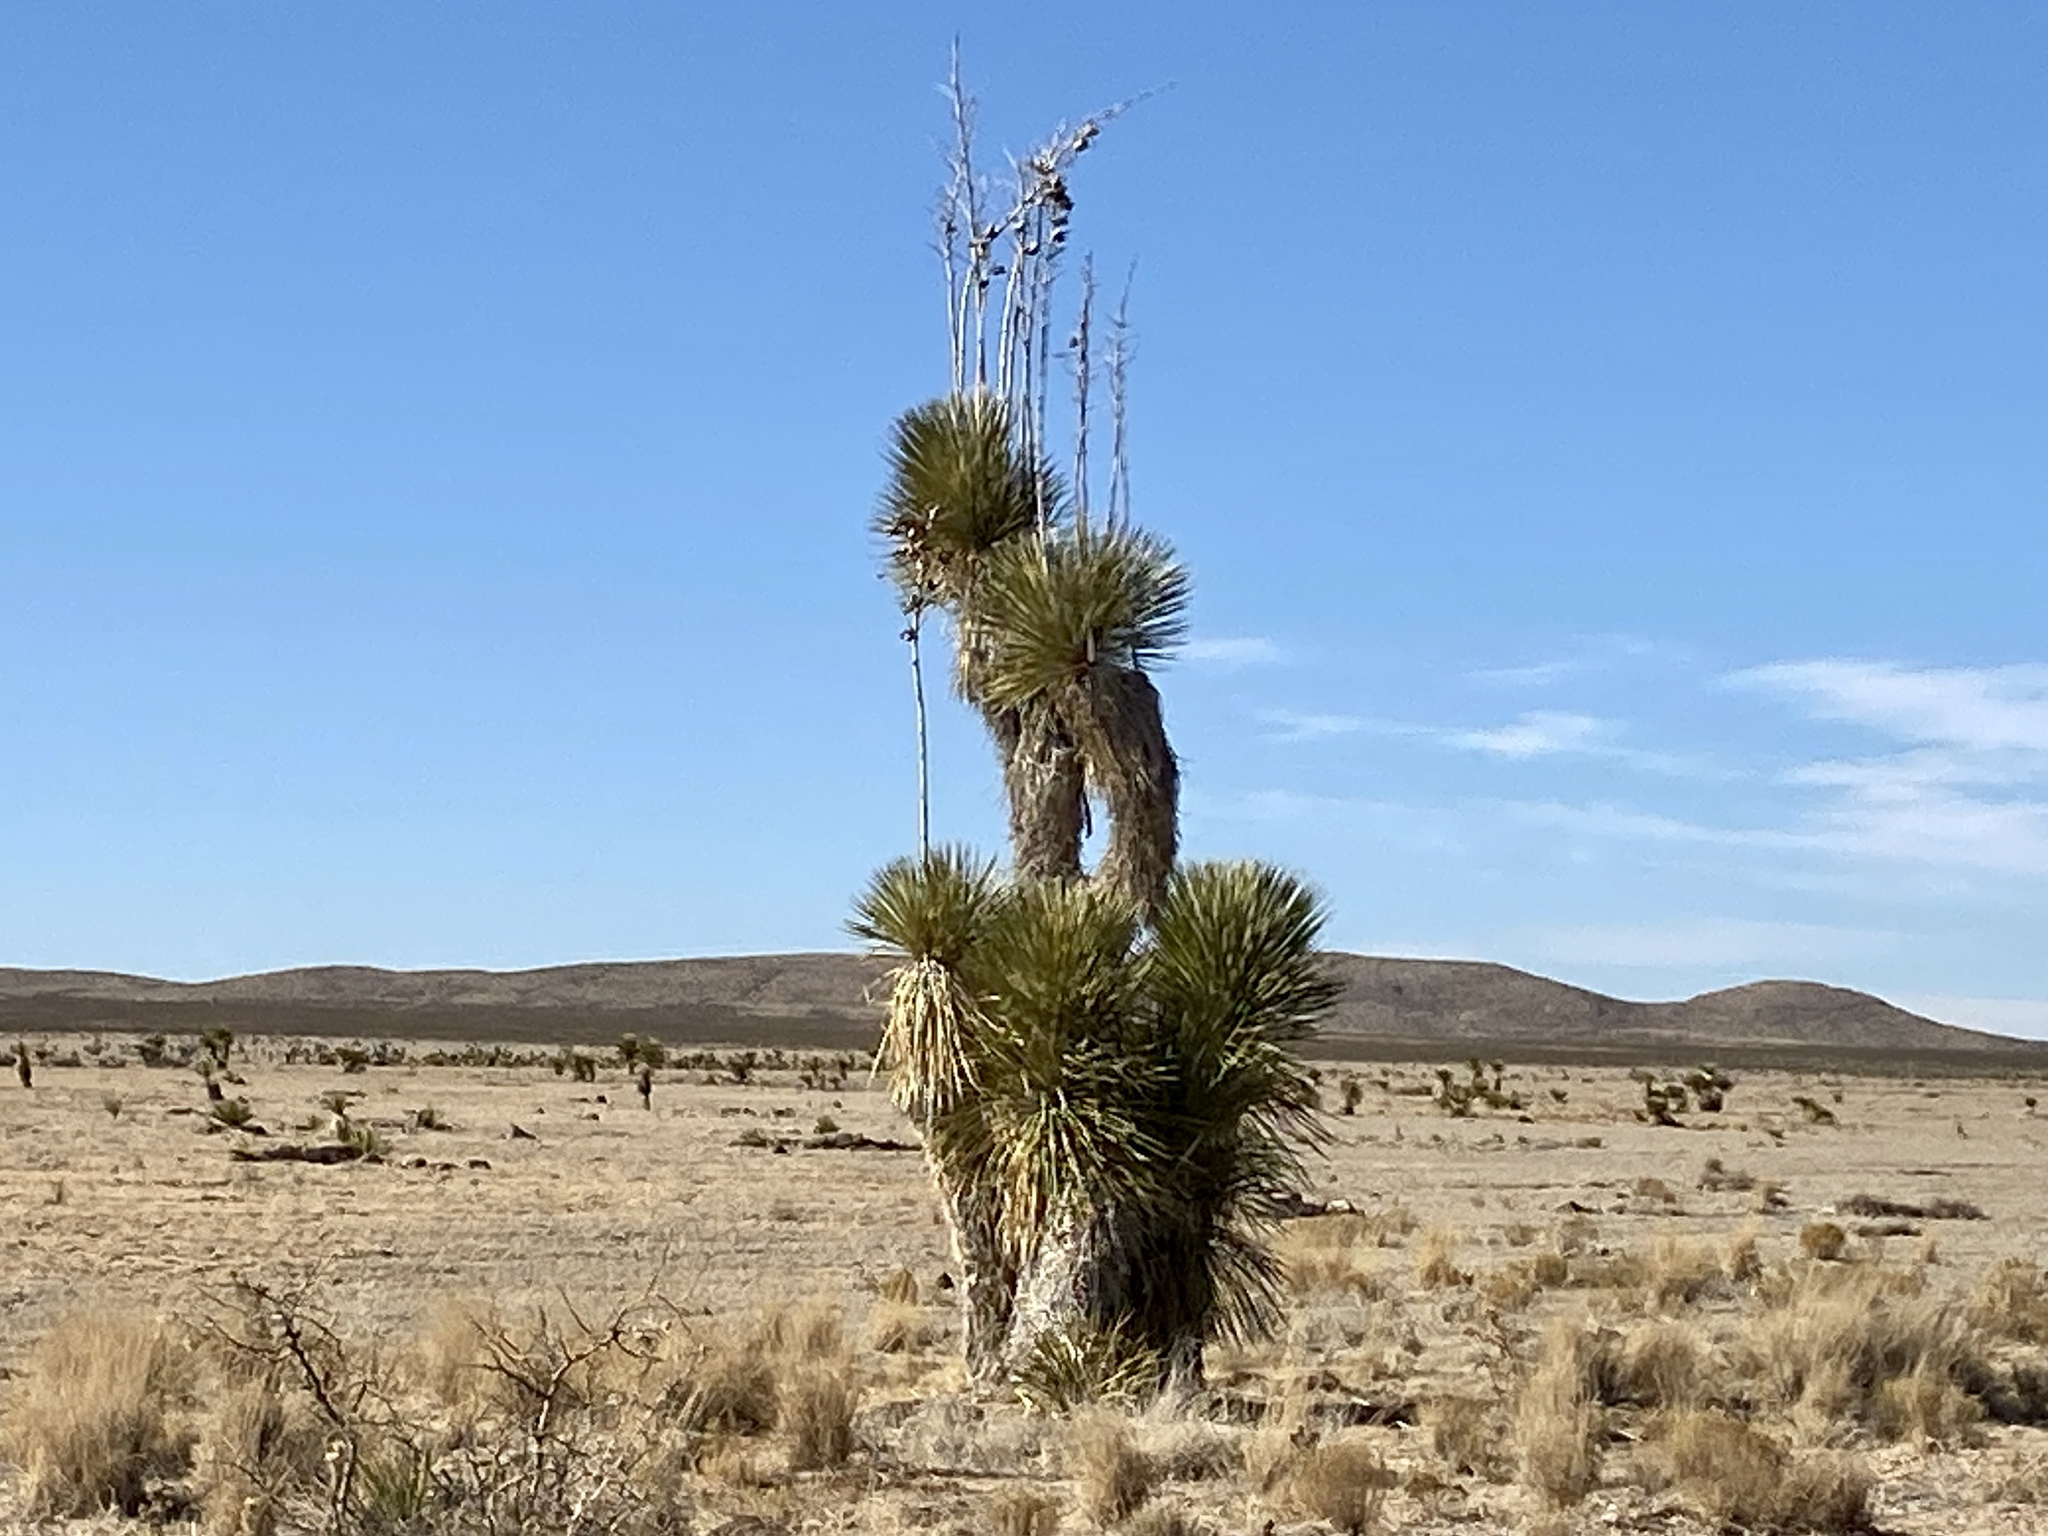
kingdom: Plantae
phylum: Tracheophyta
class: Liliopsida
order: Asparagales
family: Asparagaceae
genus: Yucca
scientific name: Yucca elata
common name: Palmella
